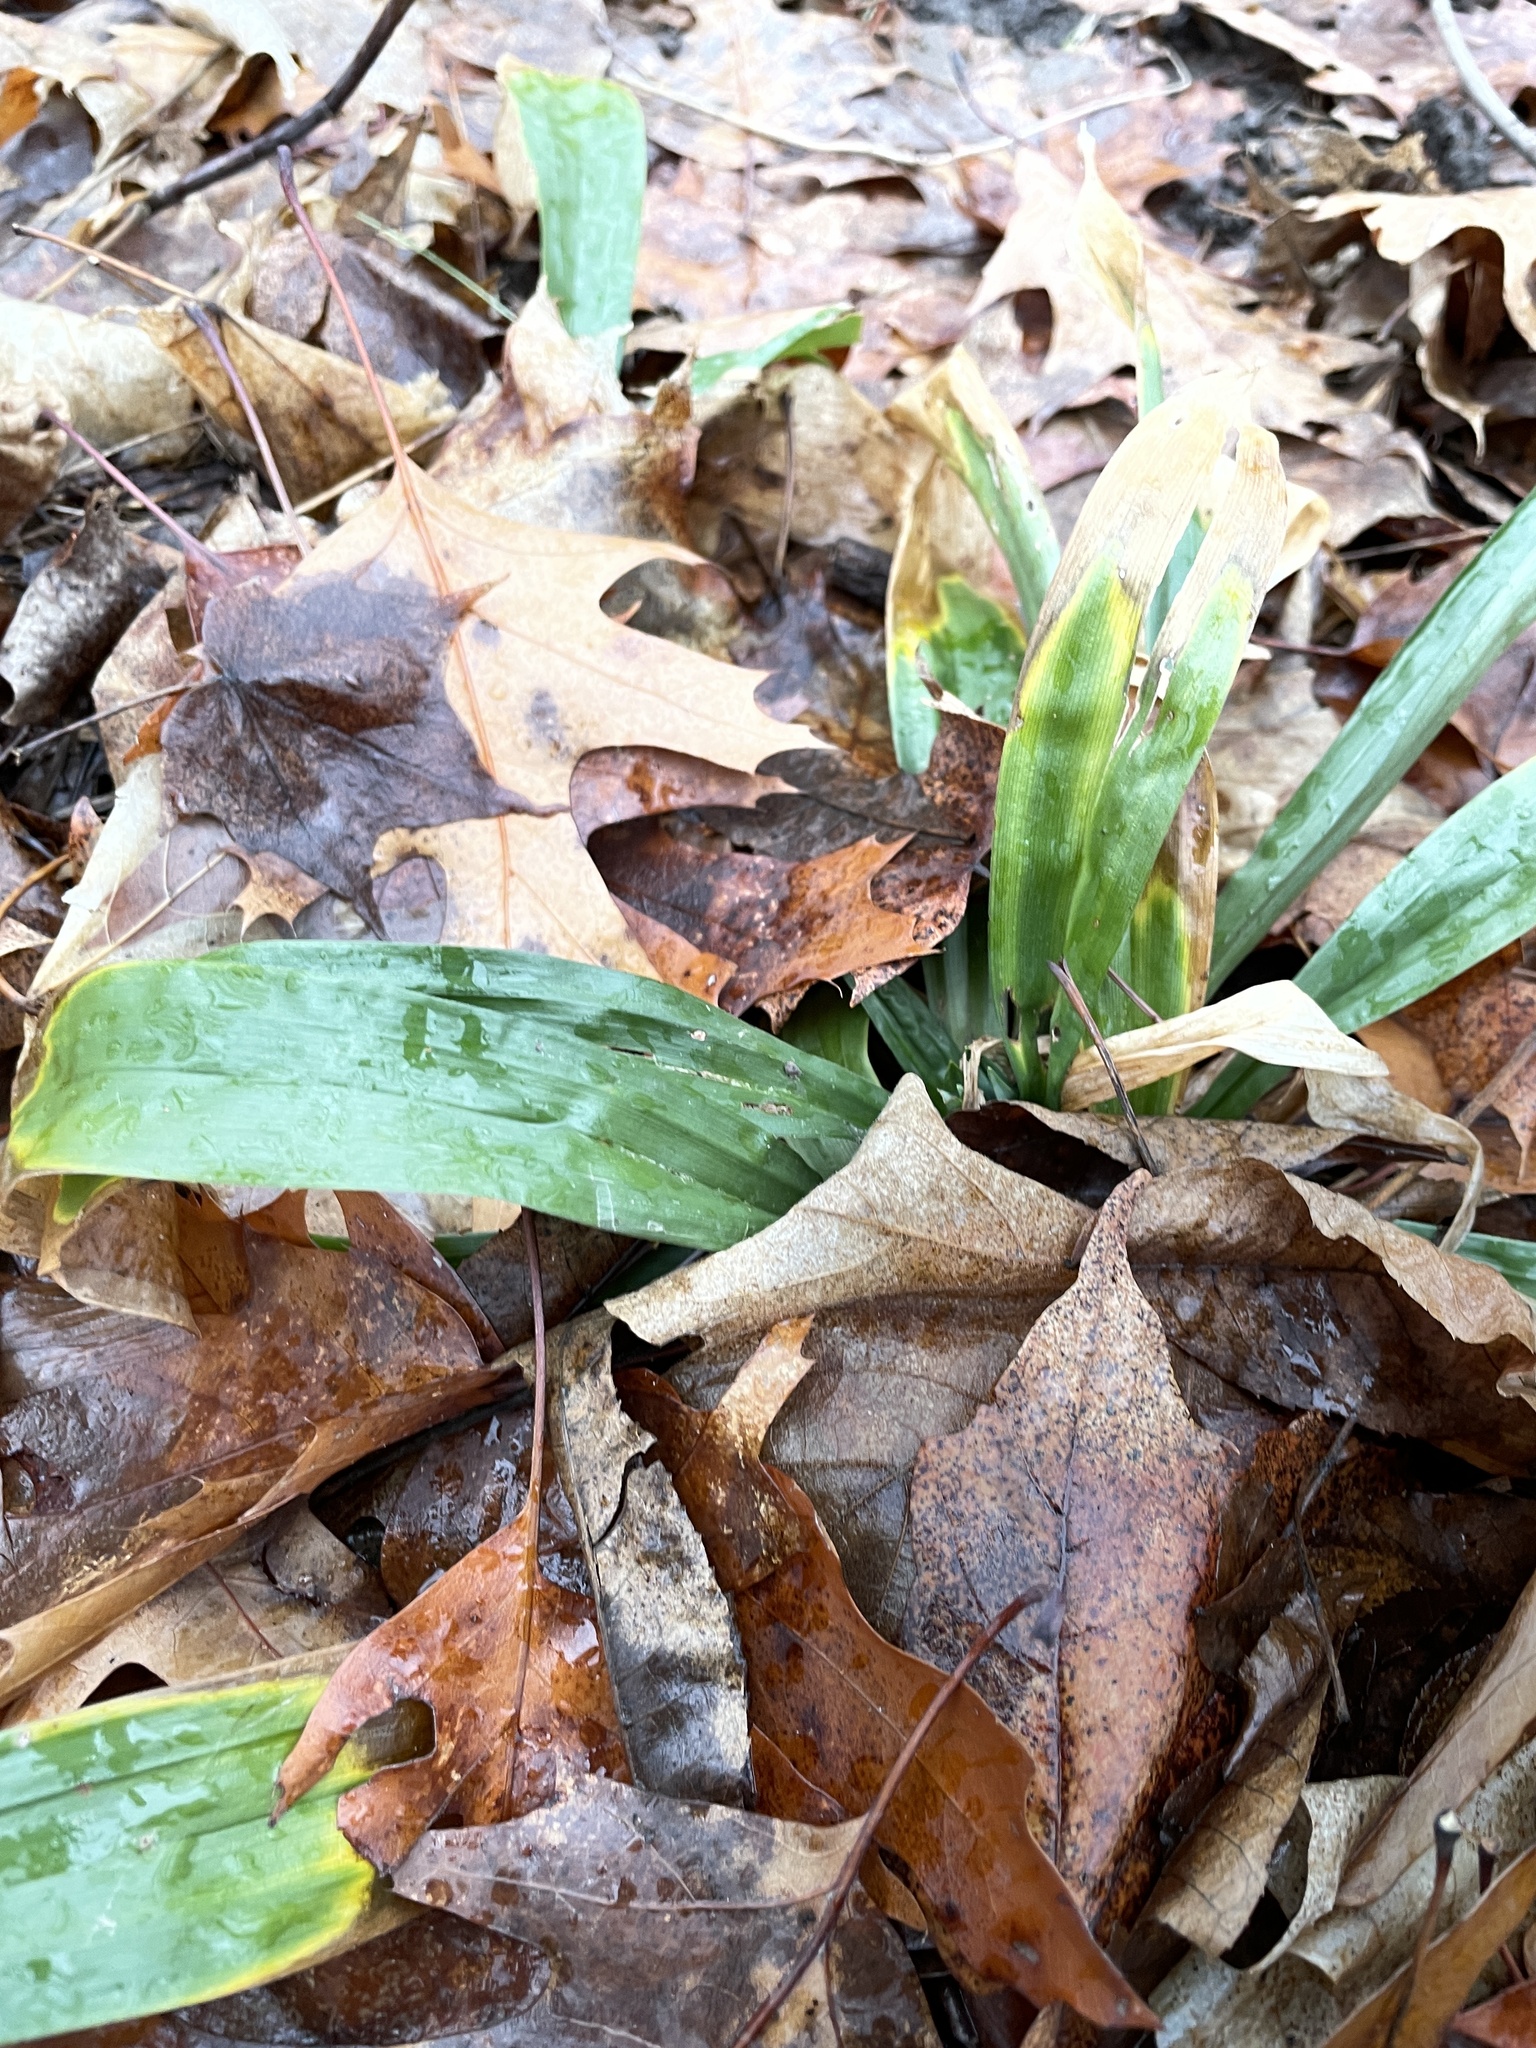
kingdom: Plantae
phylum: Tracheophyta
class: Liliopsida
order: Poales
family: Cyperaceae
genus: Carex
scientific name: Carex platyphylla
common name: Broad-leaved sedge
